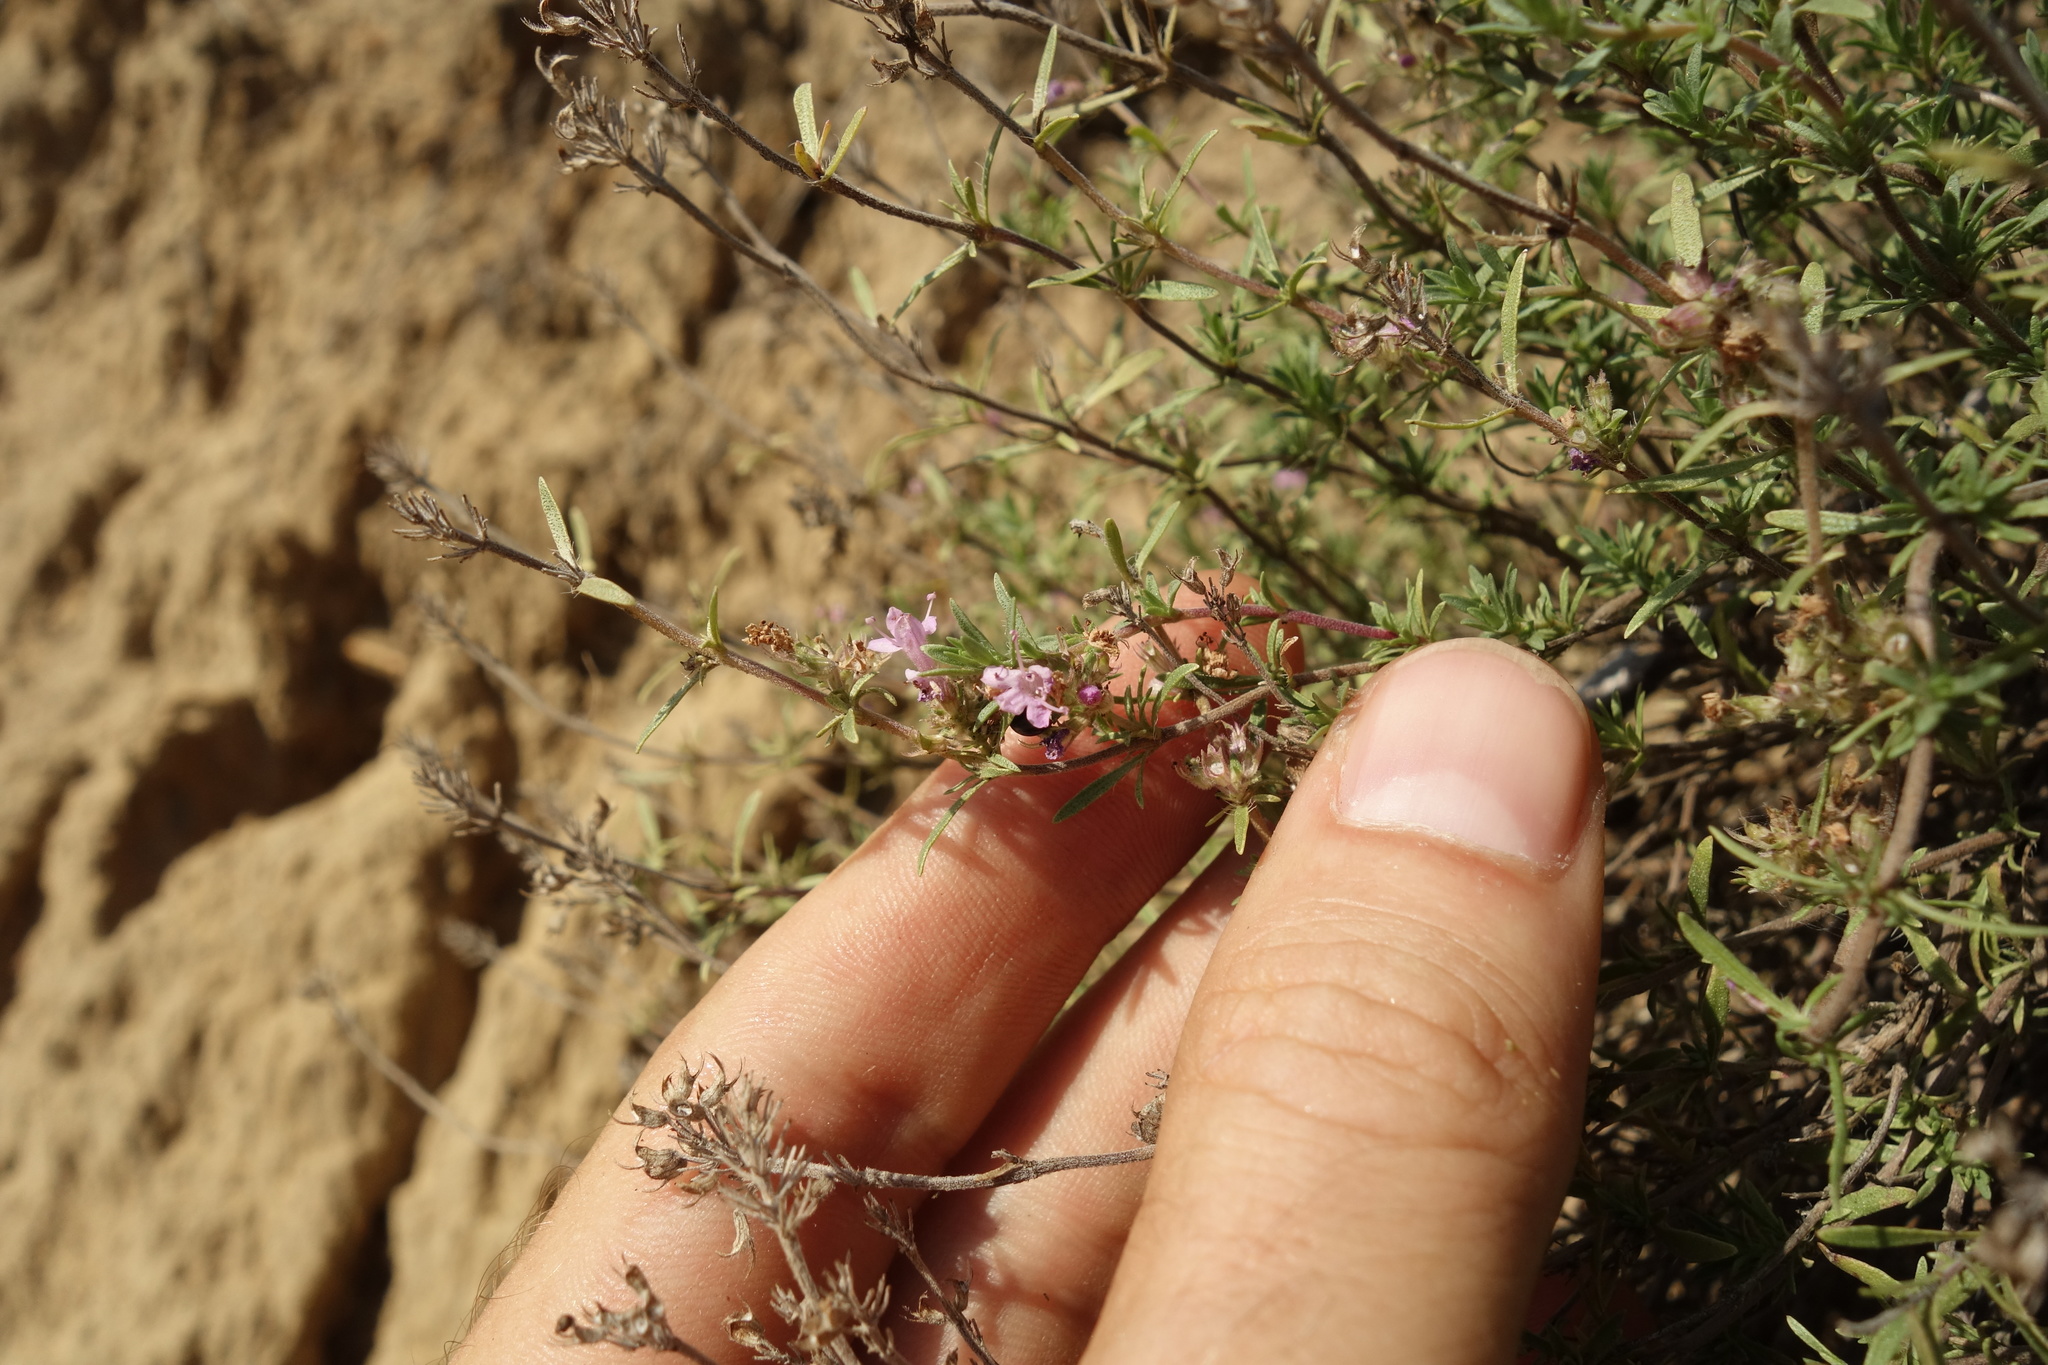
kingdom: Plantae
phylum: Tracheophyta
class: Magnoliopsida
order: Lamiales
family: Lamiaceae
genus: Thymus
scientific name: Thymus pallasianus
